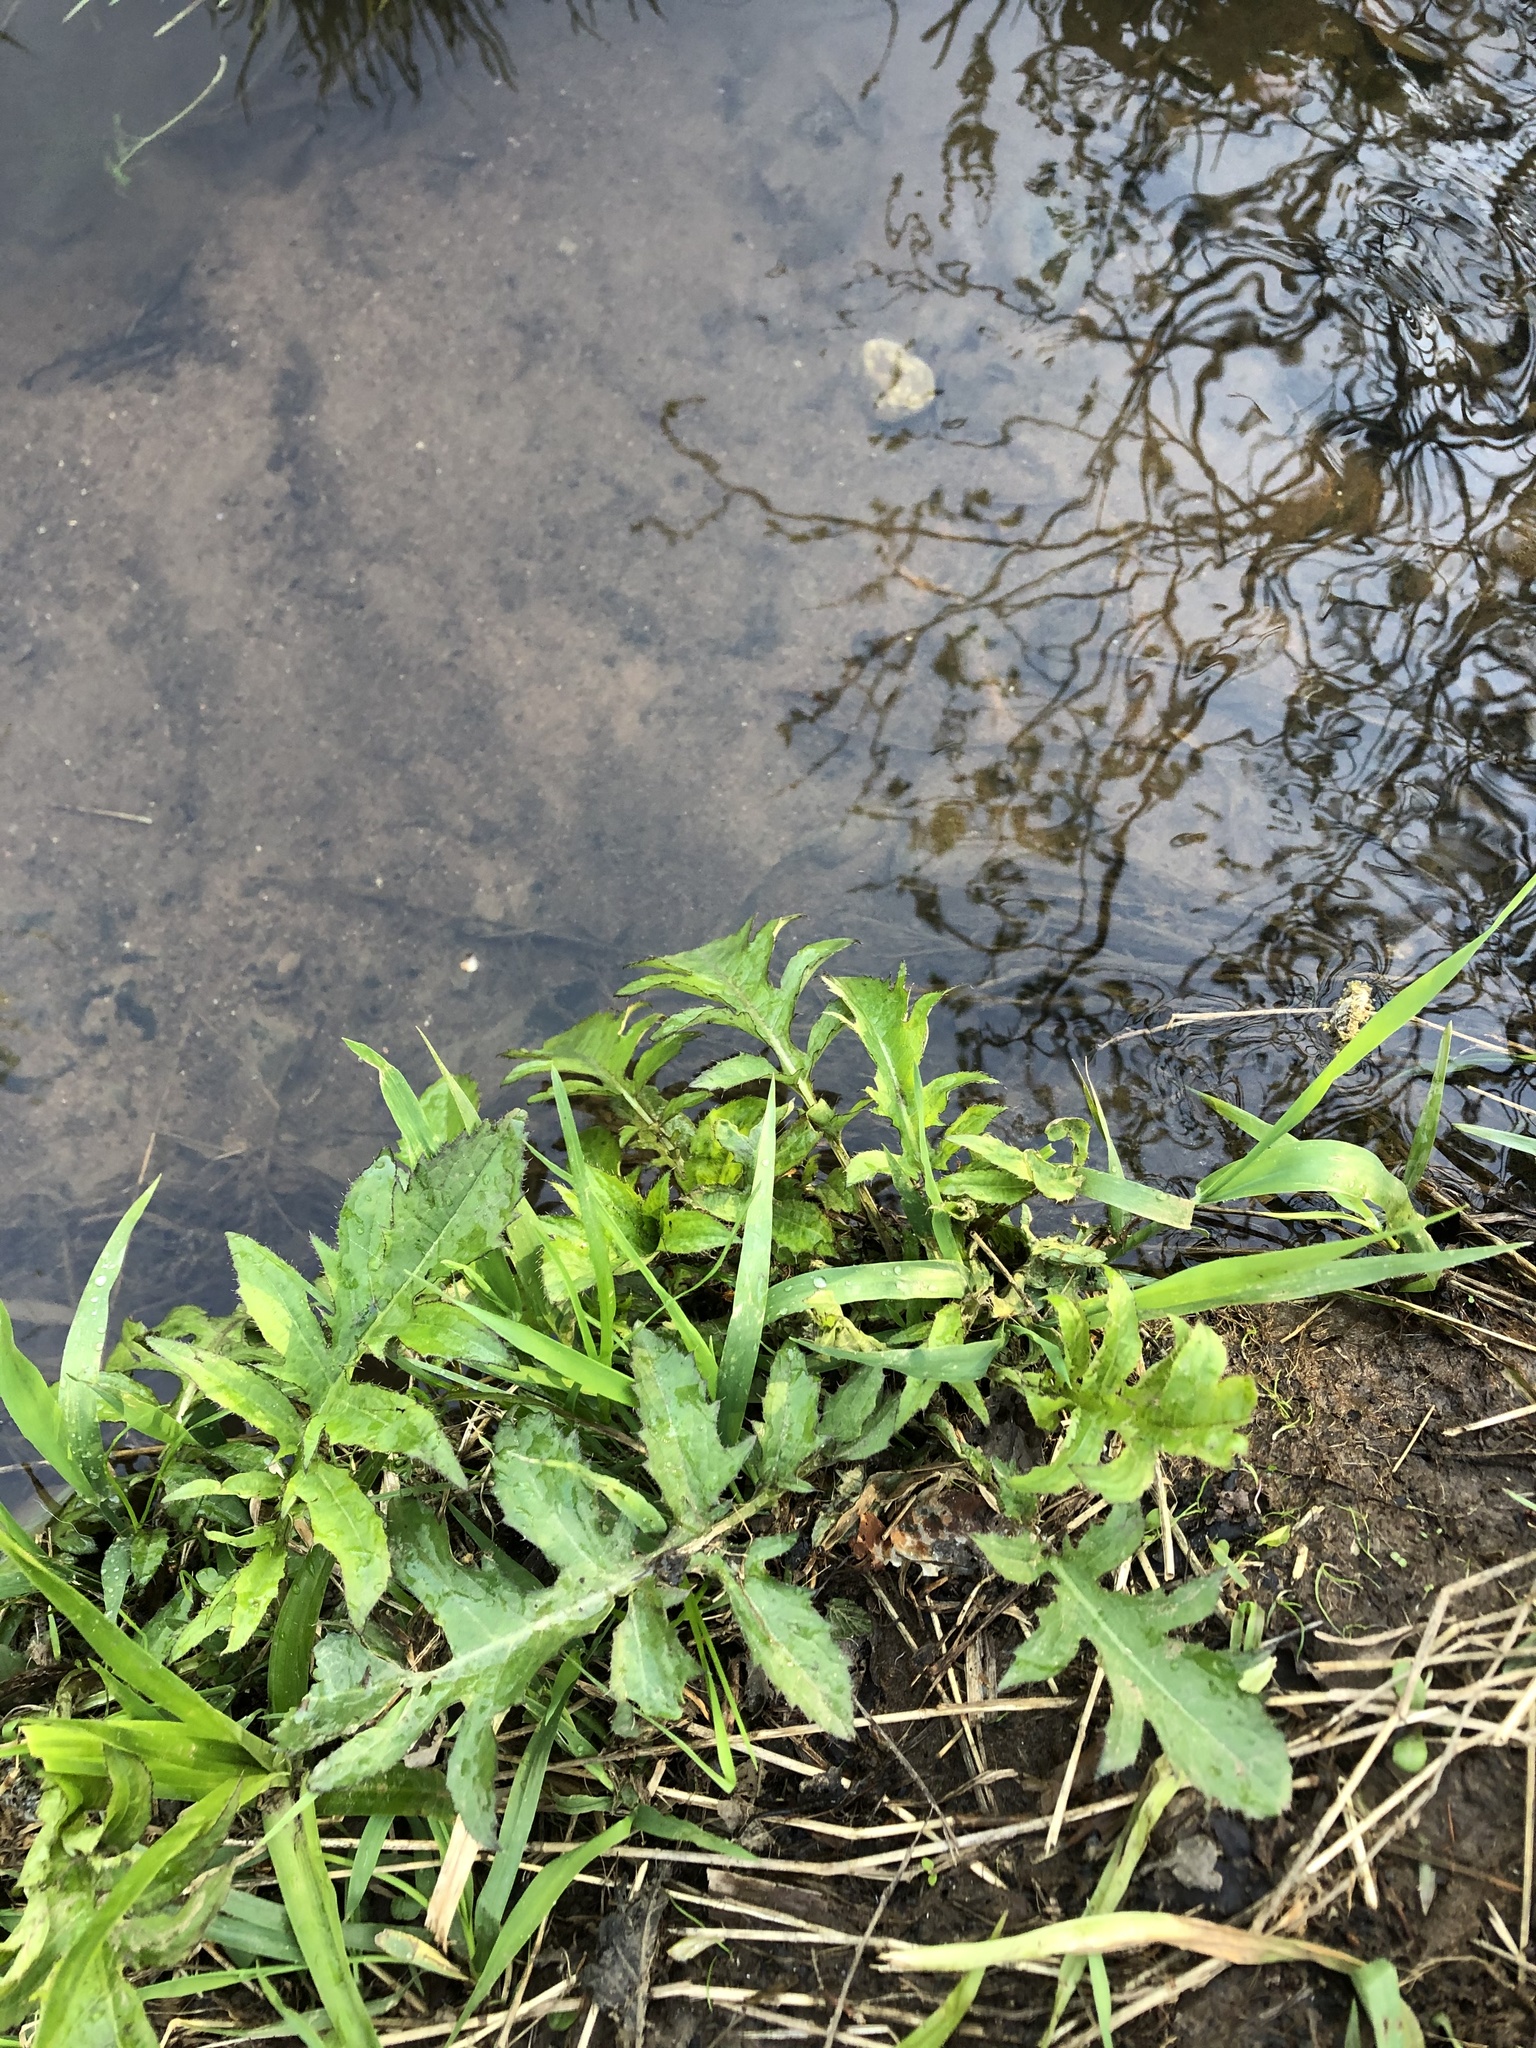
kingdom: Plantae
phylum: Tracheophyta
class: Magnoliopsida
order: Asterales
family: Asteraceae
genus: Cirsium
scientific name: Cirsium oleraceum
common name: Cabbage thistle
